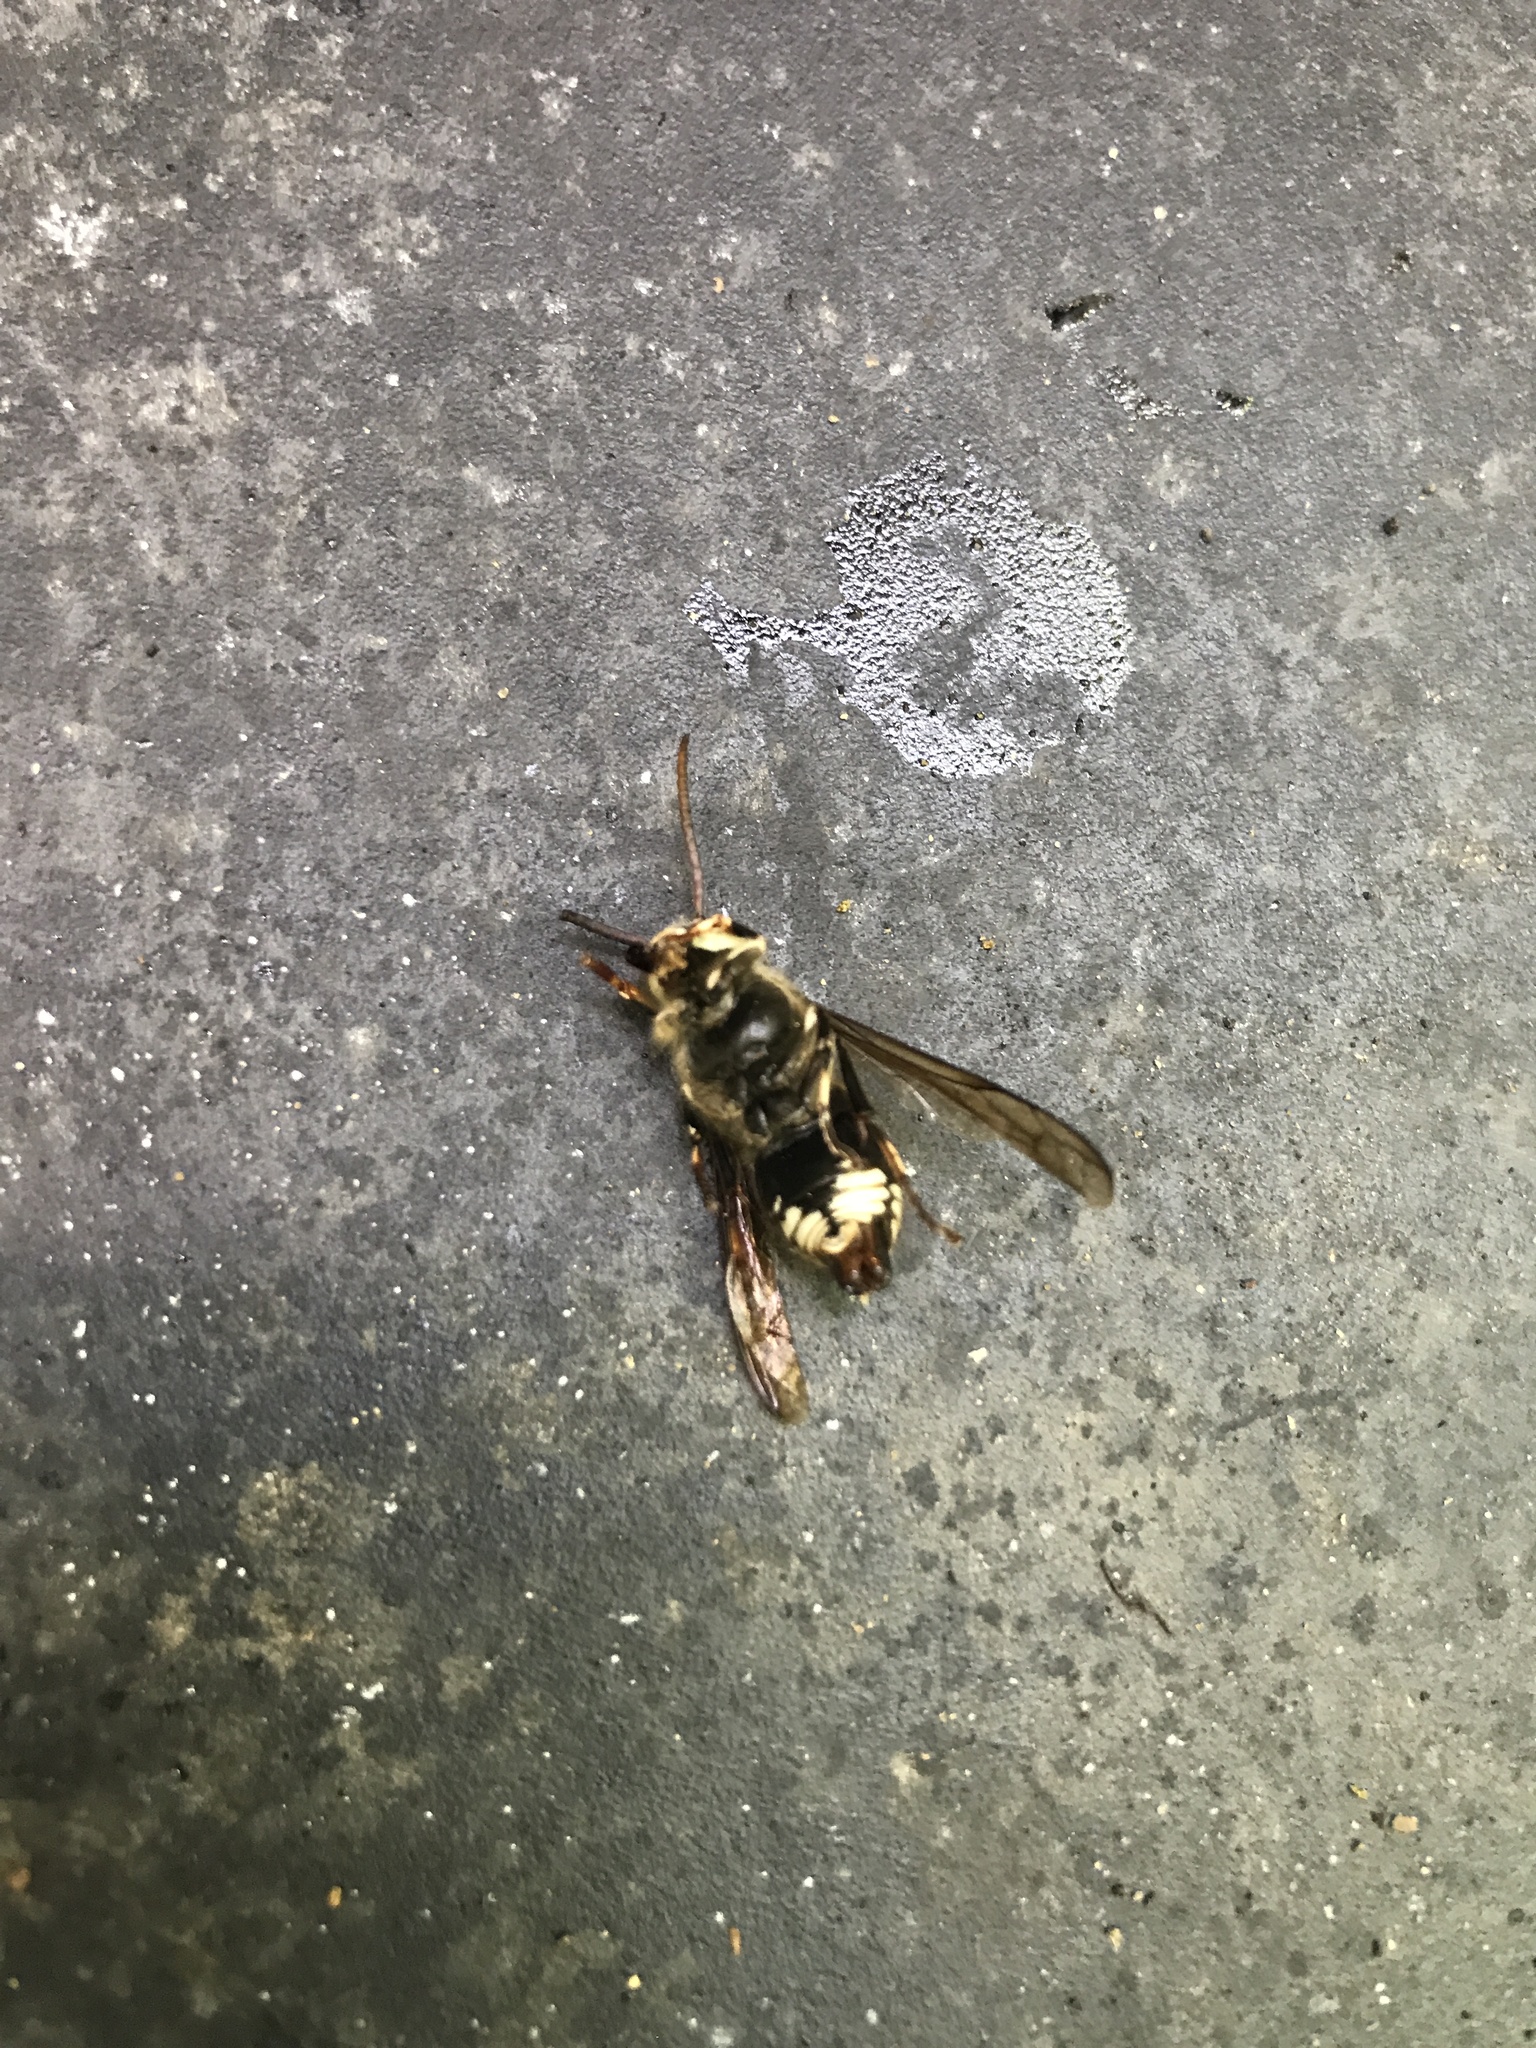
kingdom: Animalia
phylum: Arthropoda
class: Insecta
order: Hymenoptera
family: Vespidae
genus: Dolichovespula
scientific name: Dolichovespula maculata
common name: Bald-faced hornet
